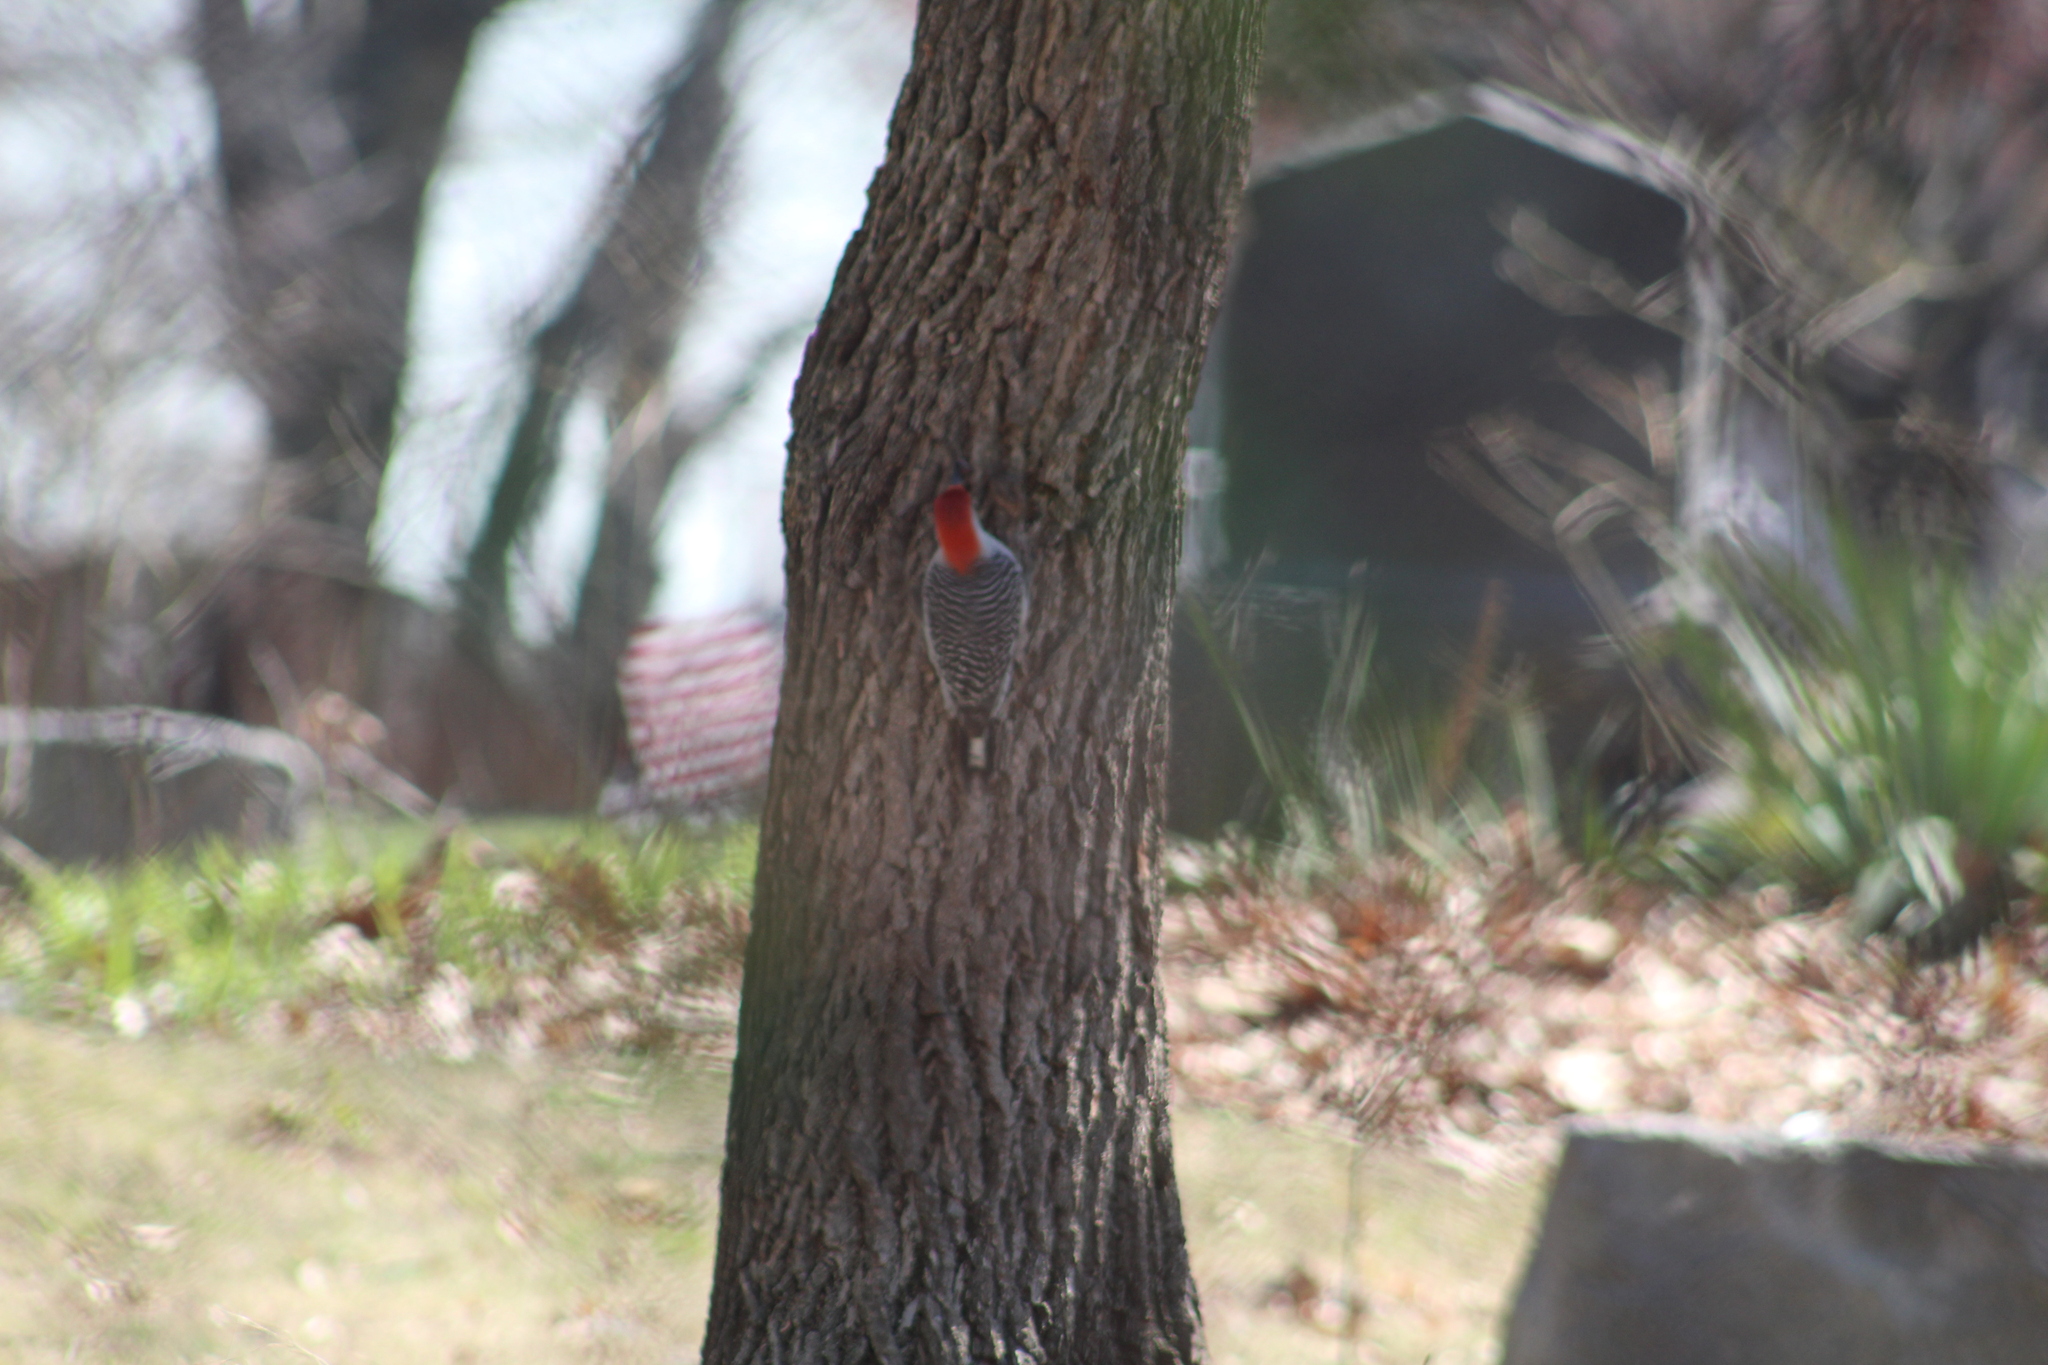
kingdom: Animalia
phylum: Chordata
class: Aves
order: Piciformes
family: Picidae
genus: Melanerpes
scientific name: Melanerpes carolinus
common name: Red-bellied woodpecker
